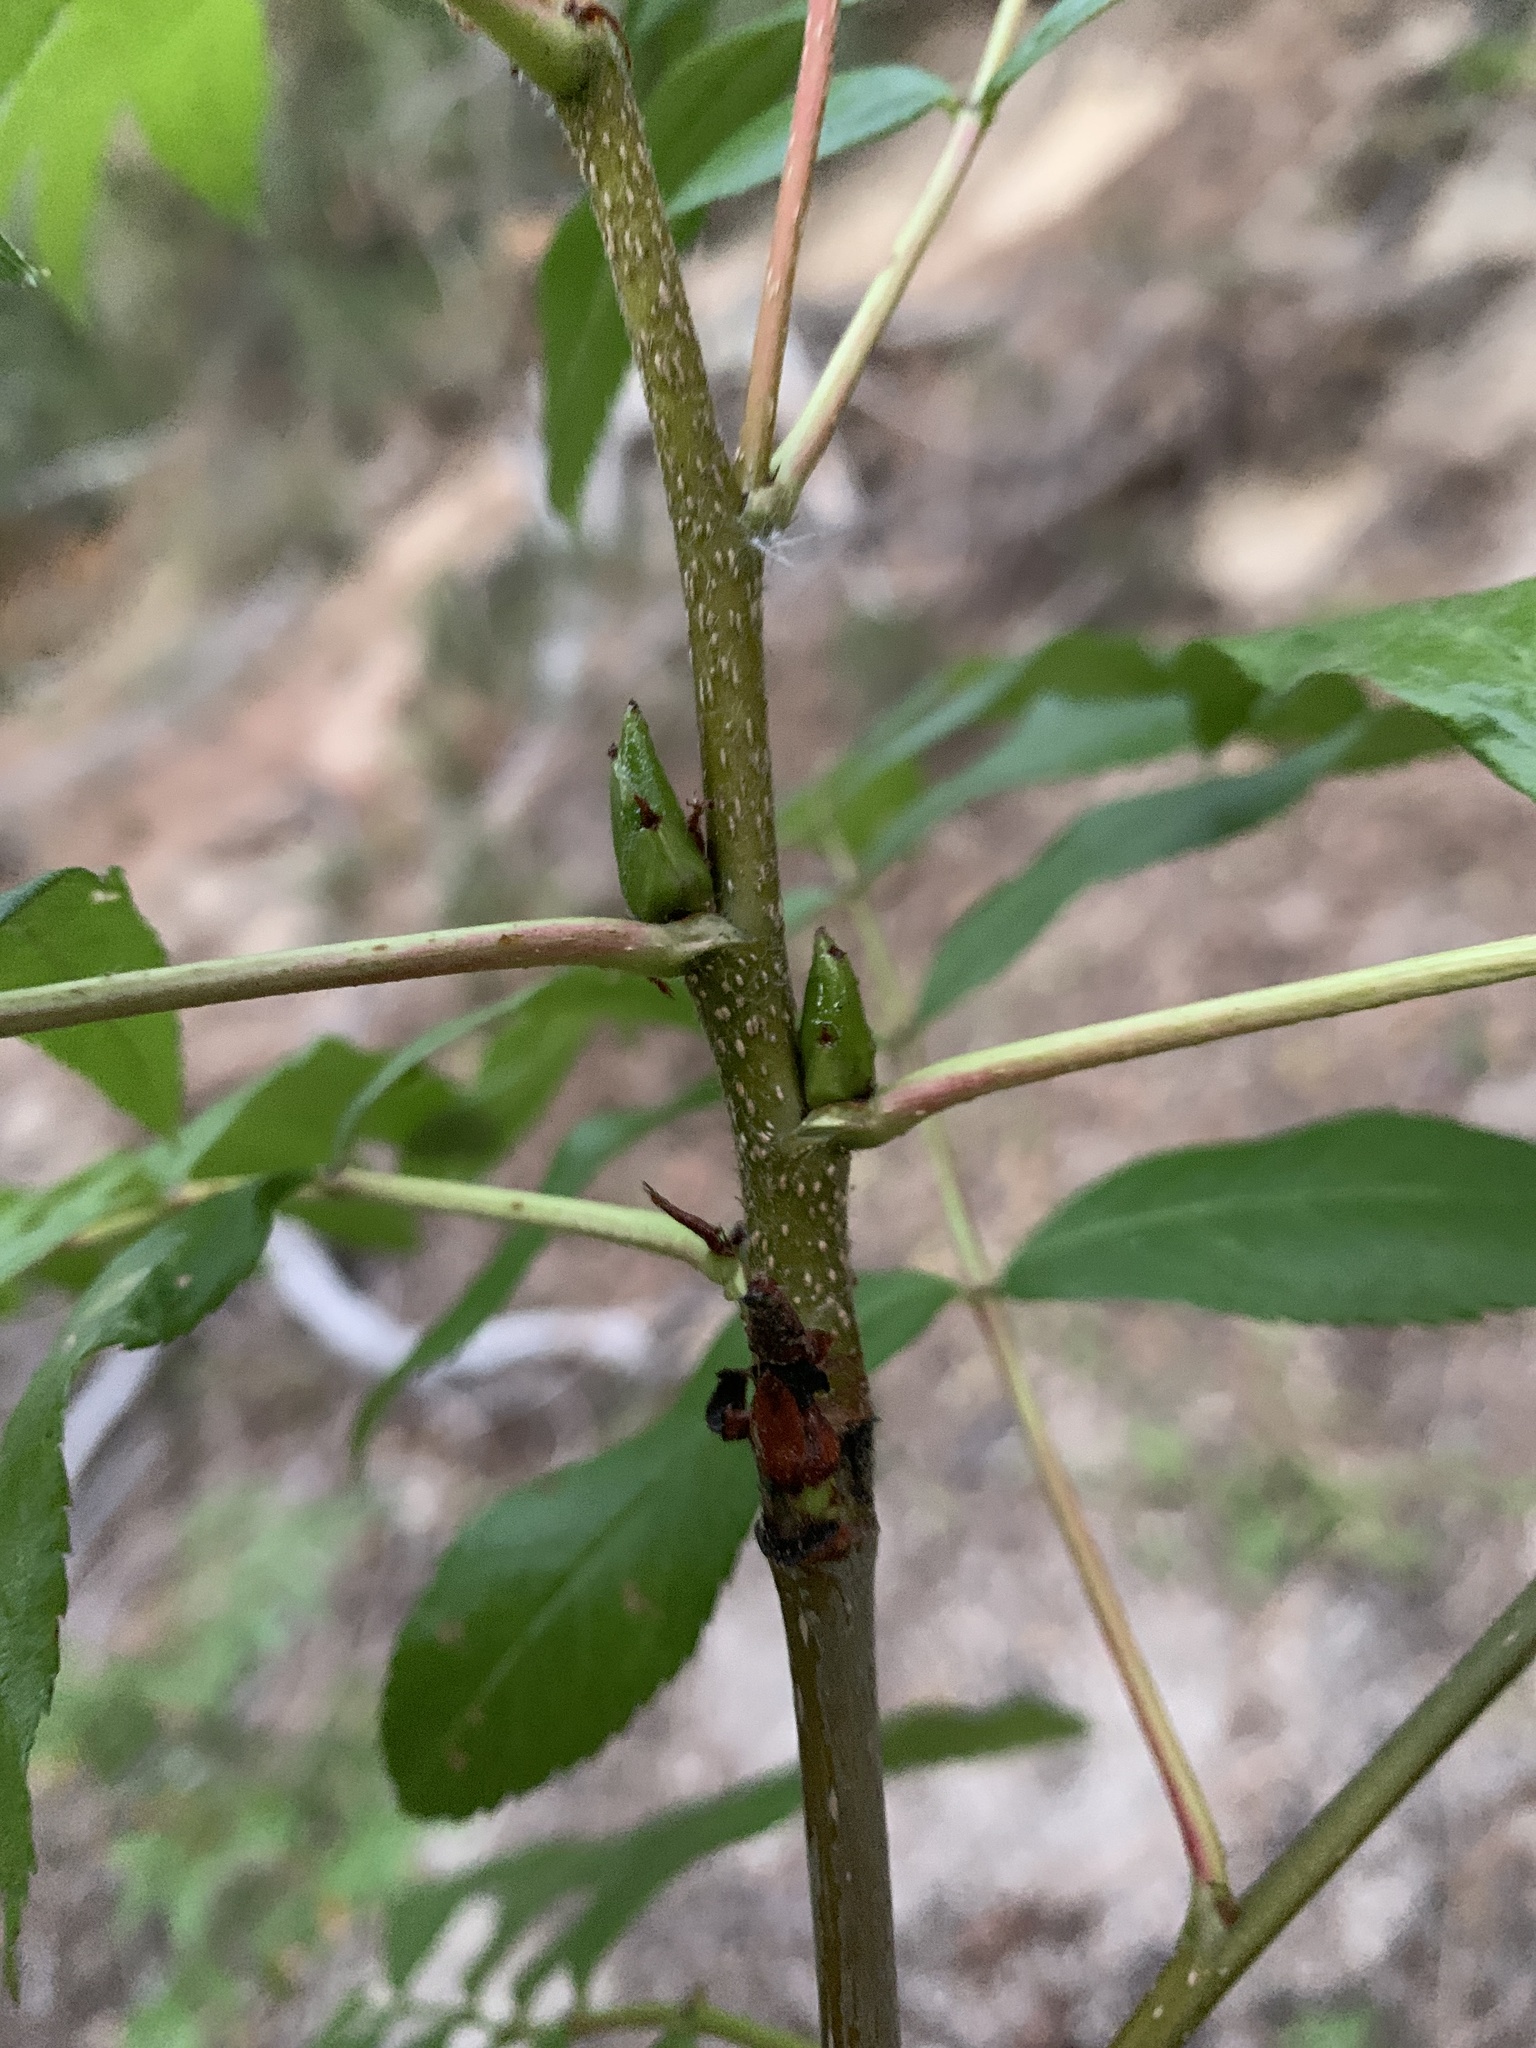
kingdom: Plantae
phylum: Tracheophyta
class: Magnoliopsida
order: Rosales
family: Rosaceae
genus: Sorbus
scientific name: Sorbus scopulina
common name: Greene's mountain-ash
